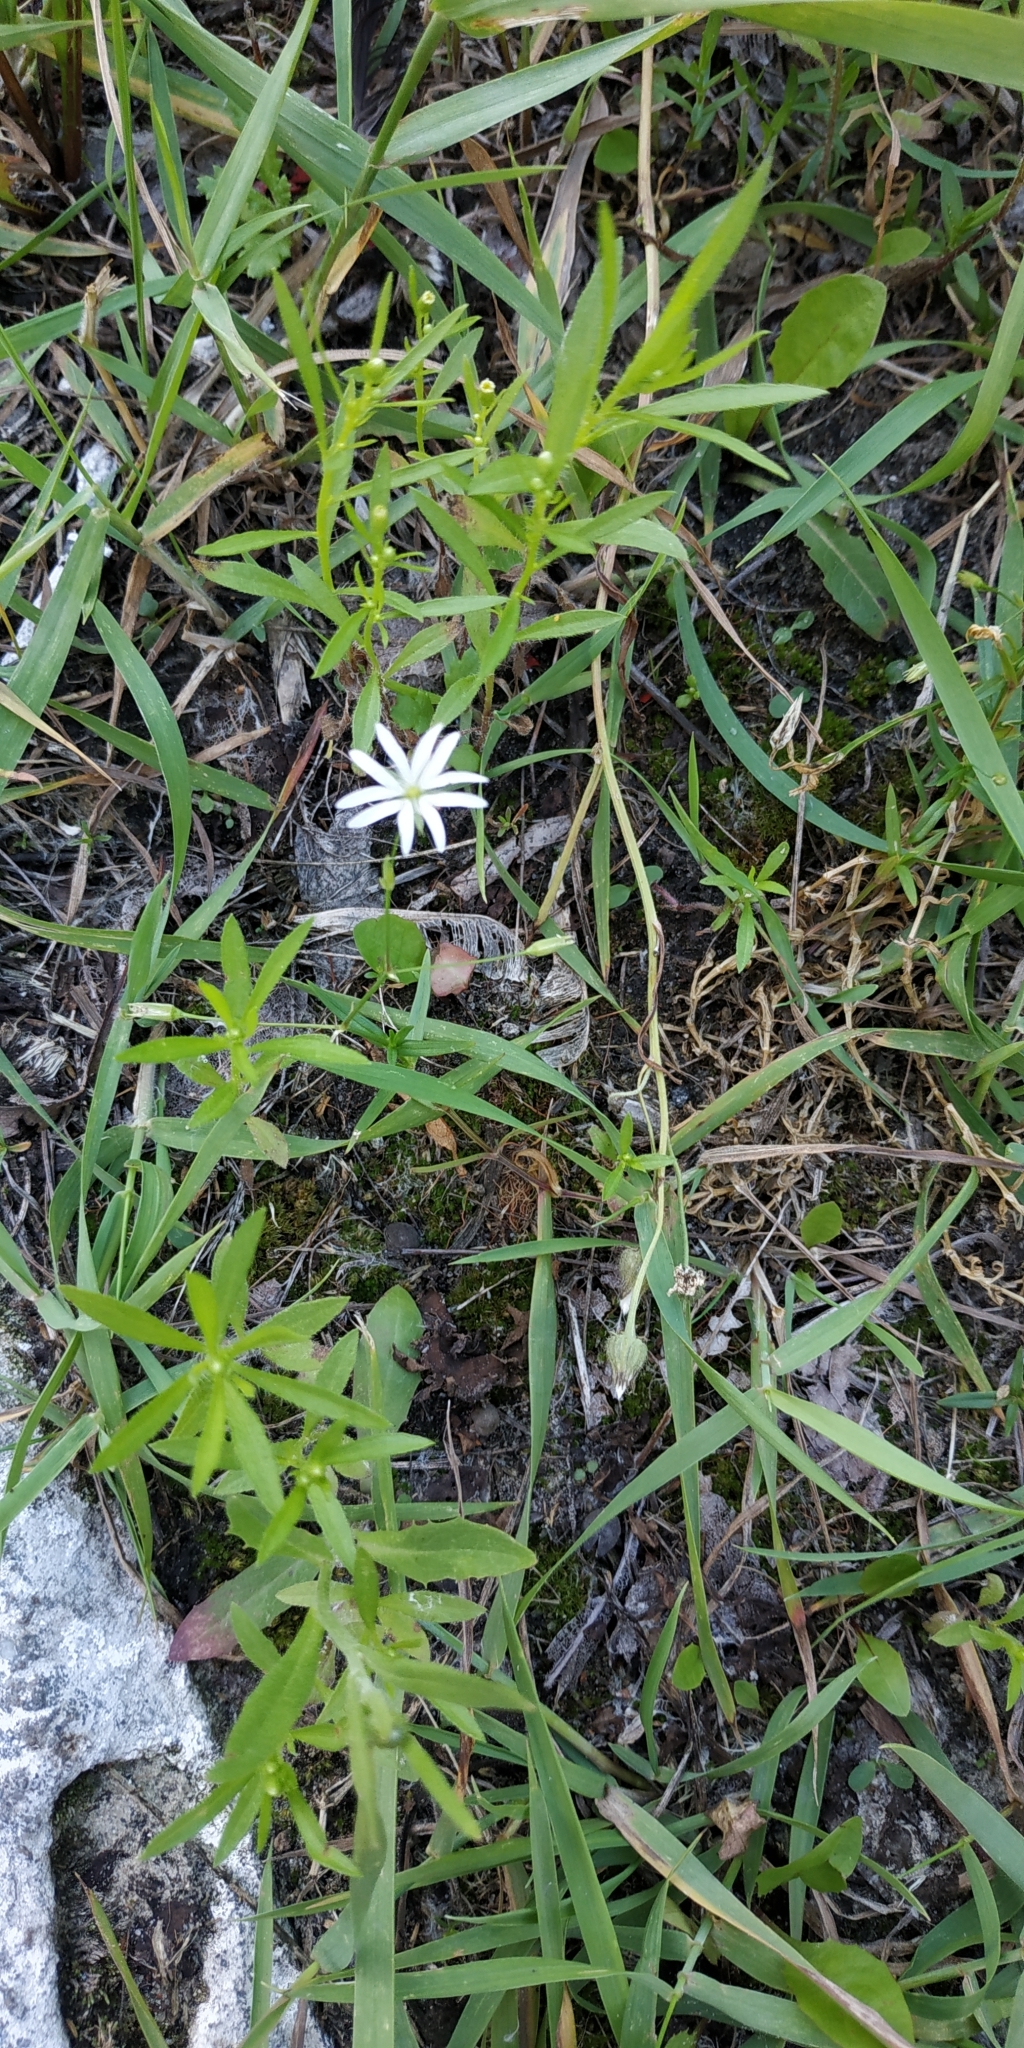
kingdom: Plantae
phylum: Tracheophyta
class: Magnoliopsida
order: Caryophyllales
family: Caryophyllaceae
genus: Stellaria
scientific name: Stellaria graminea
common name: Grass-like starwort
